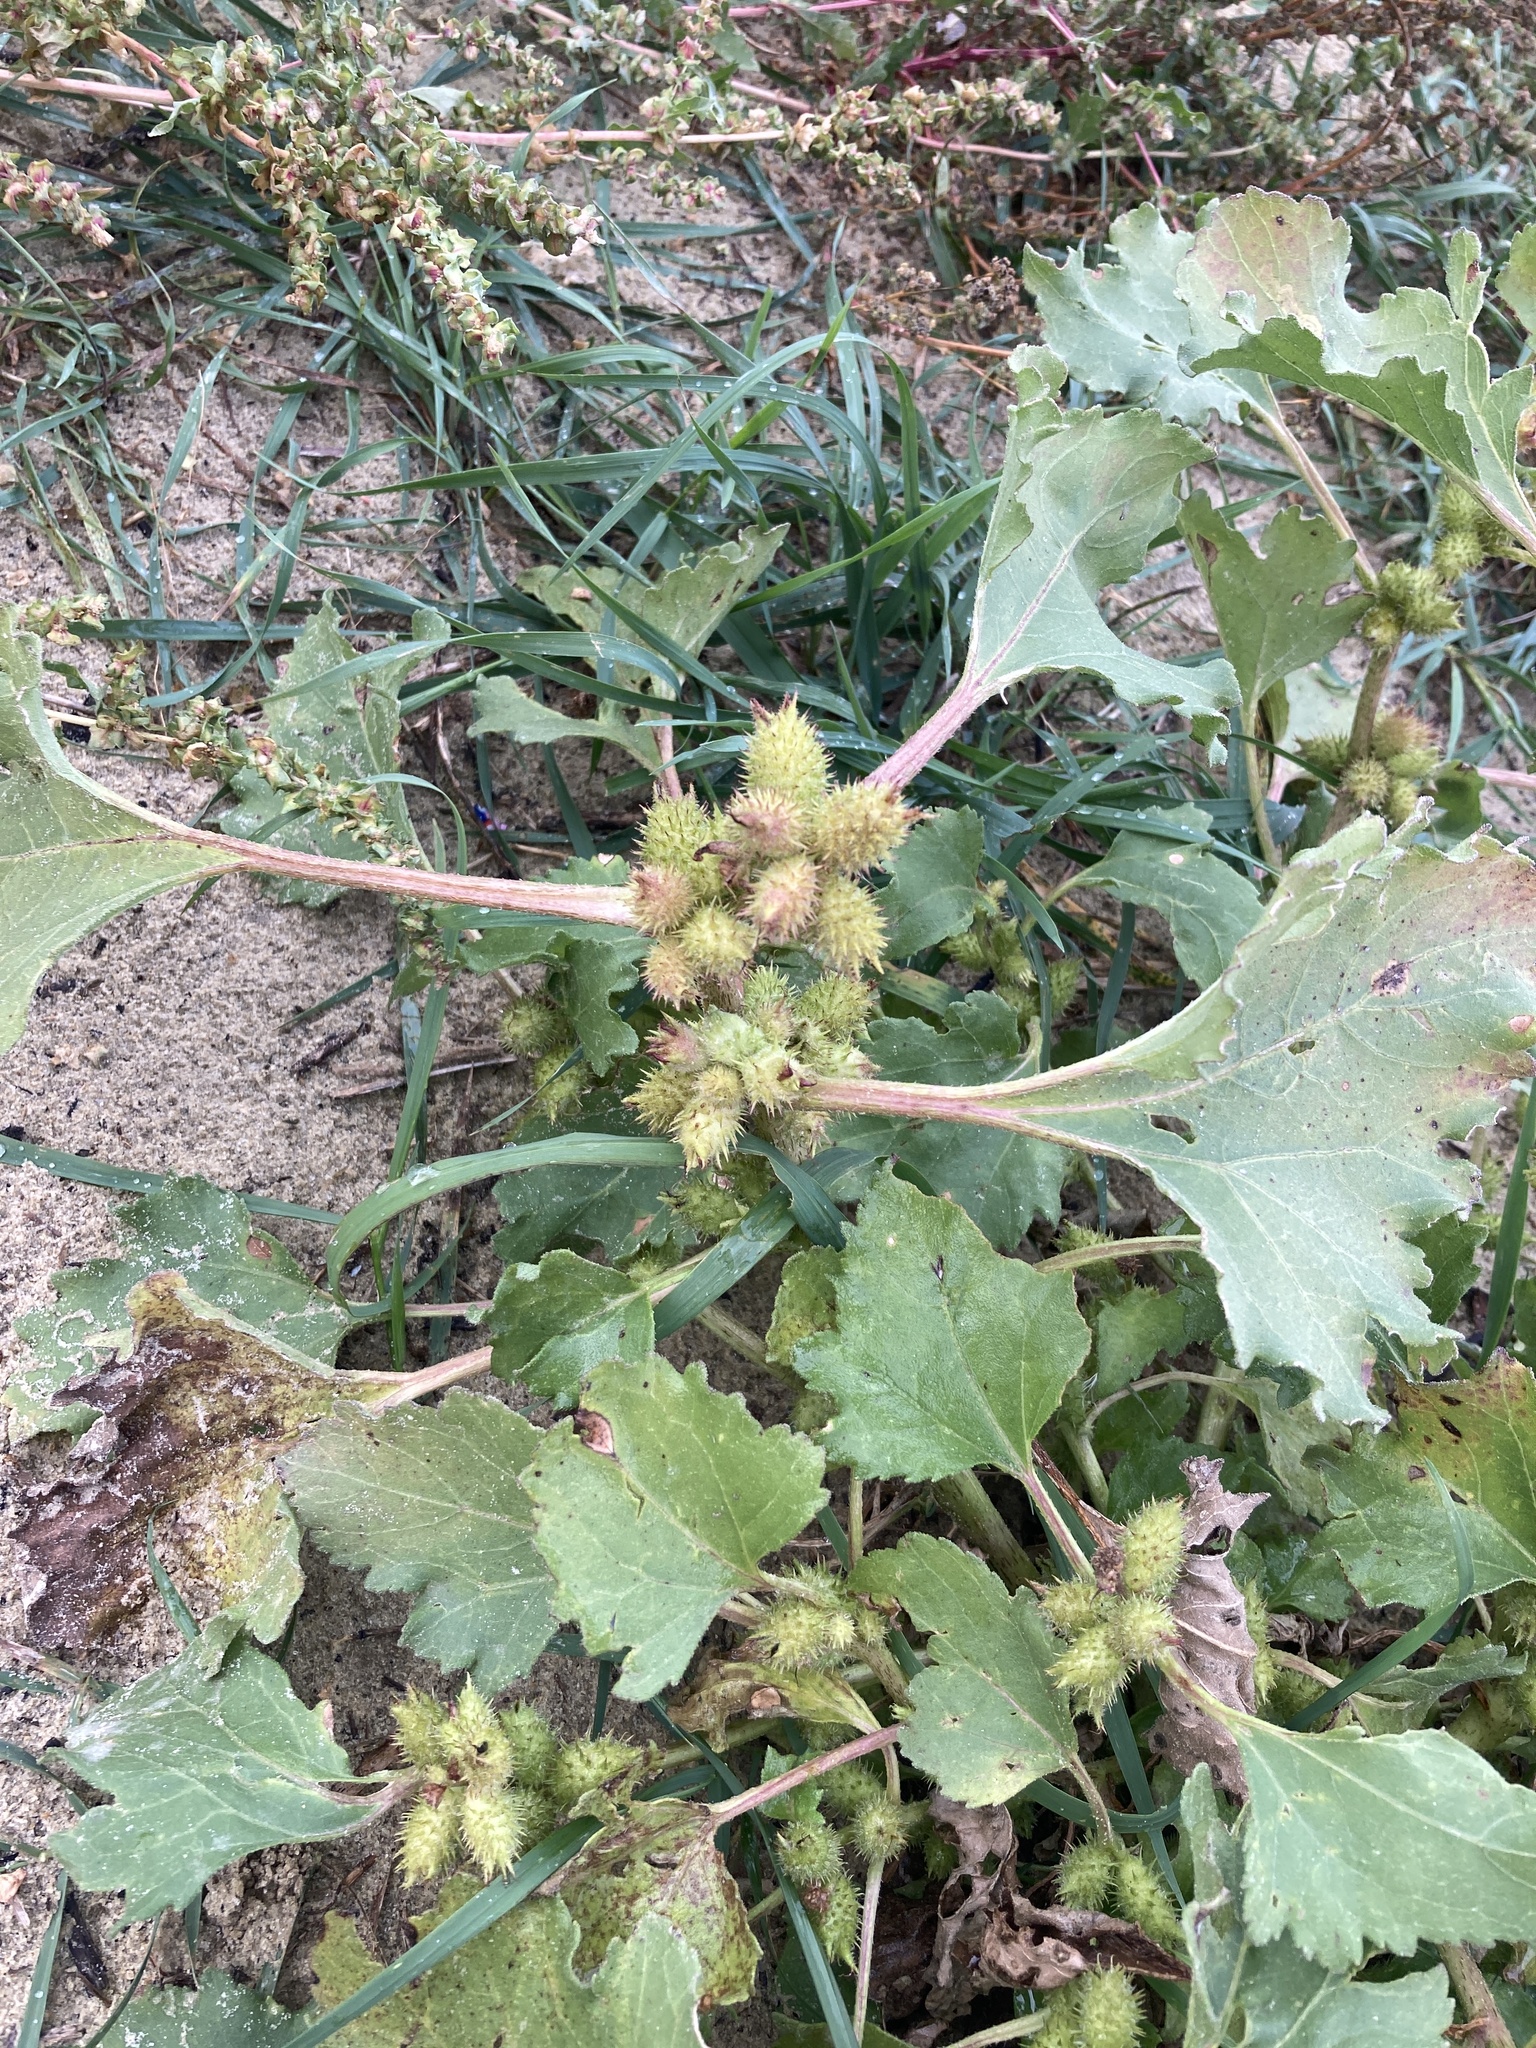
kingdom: Plantae
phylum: Tracheophyta
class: Magnoliopsida
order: Asterales
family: Asteraceae
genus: Xanthium
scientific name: Xanthium orientale
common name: Californian burr
